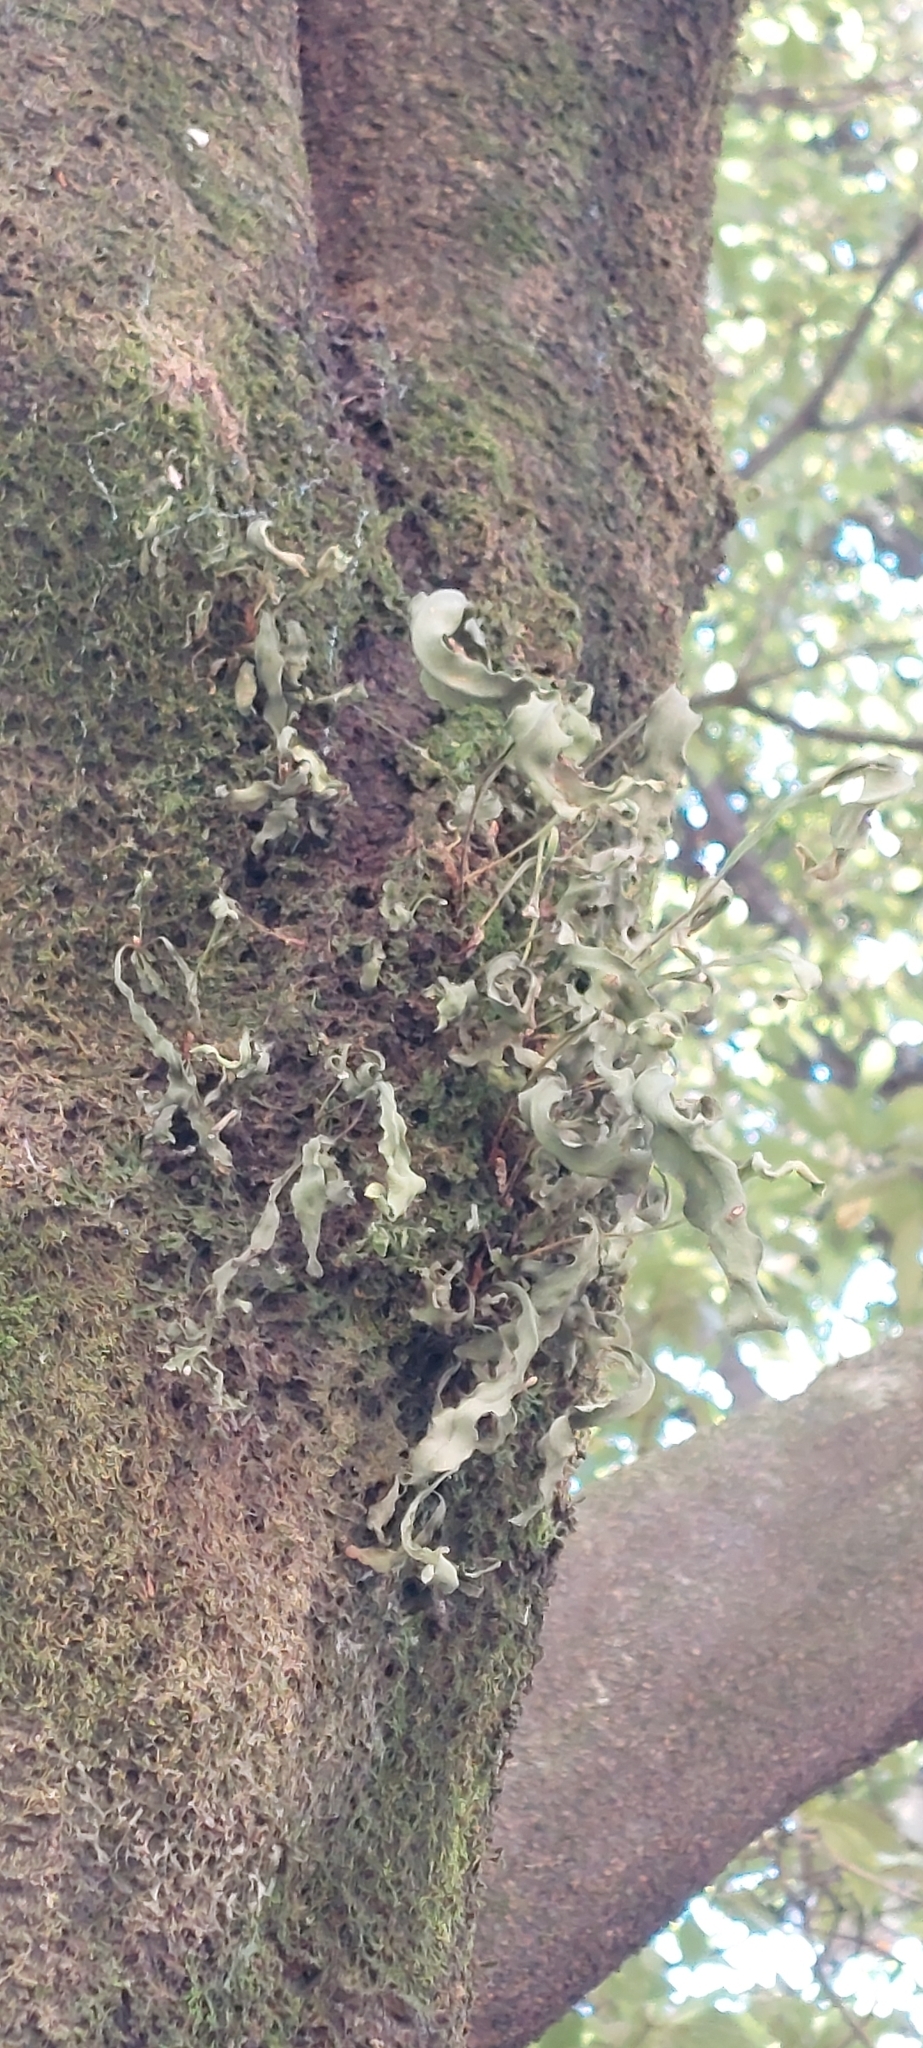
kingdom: Plantae
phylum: Tracheophyta
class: Polypodiopsida
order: Polypodiales
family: Polypodiaceae
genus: Pleopeltis
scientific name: Pleopeltis macrocarpa
